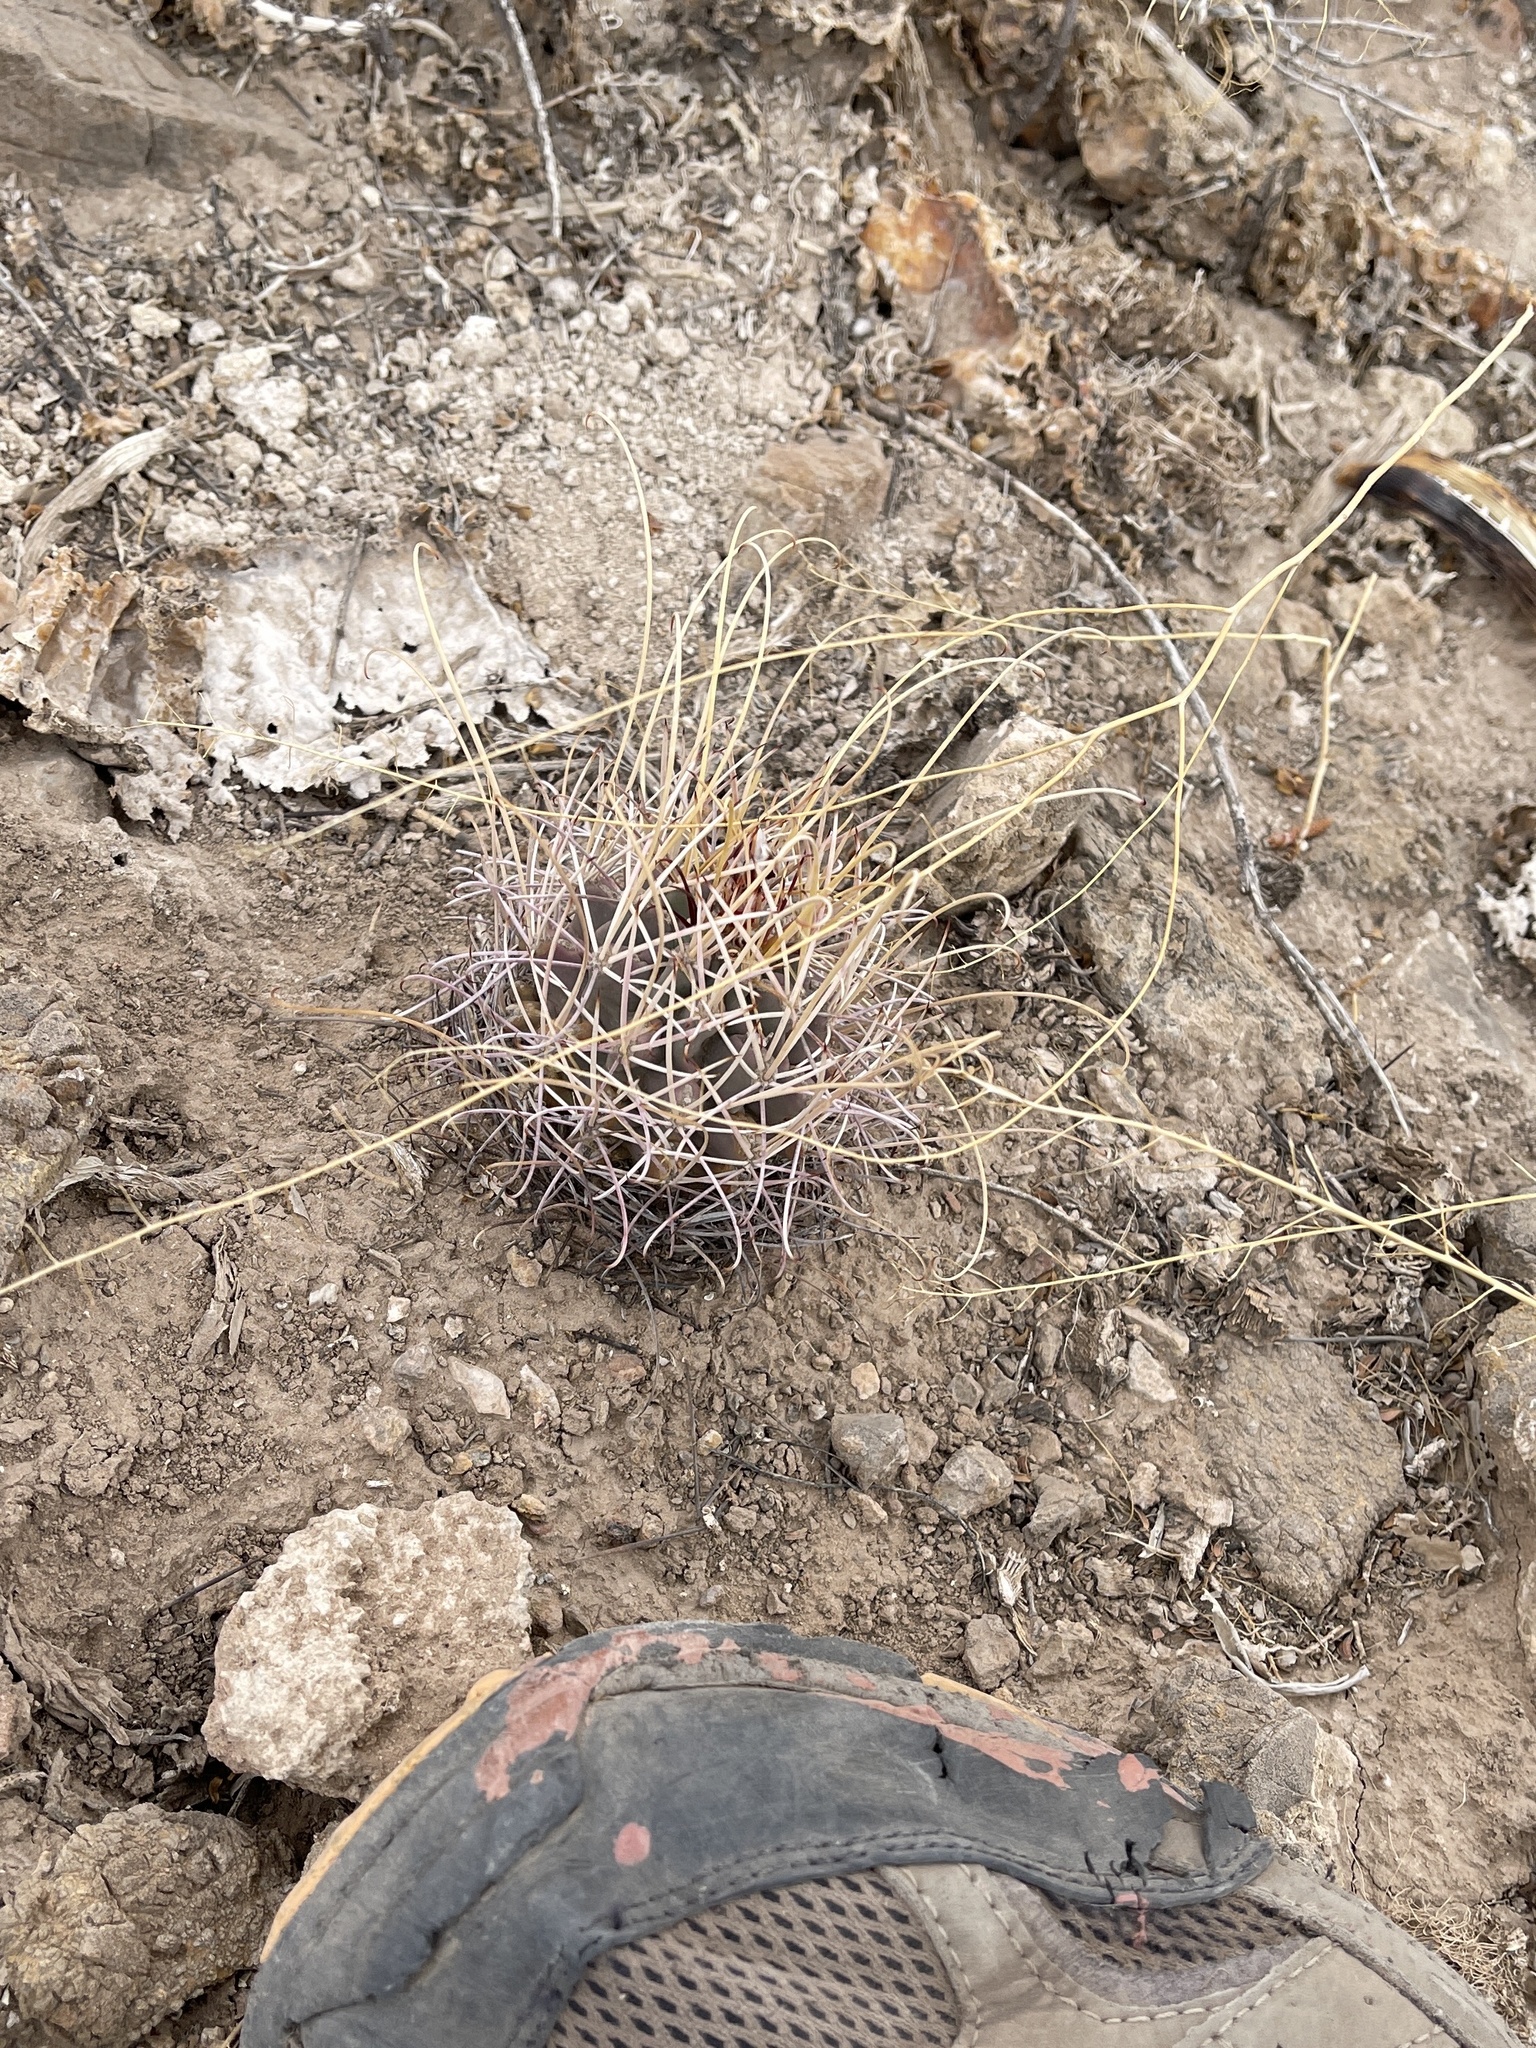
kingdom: Plantae
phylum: Tracheophyta
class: Magnoliopsida
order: Caryophyllales
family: Cactaceae
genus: Ferocactus
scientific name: Ferocactus uncinatus
